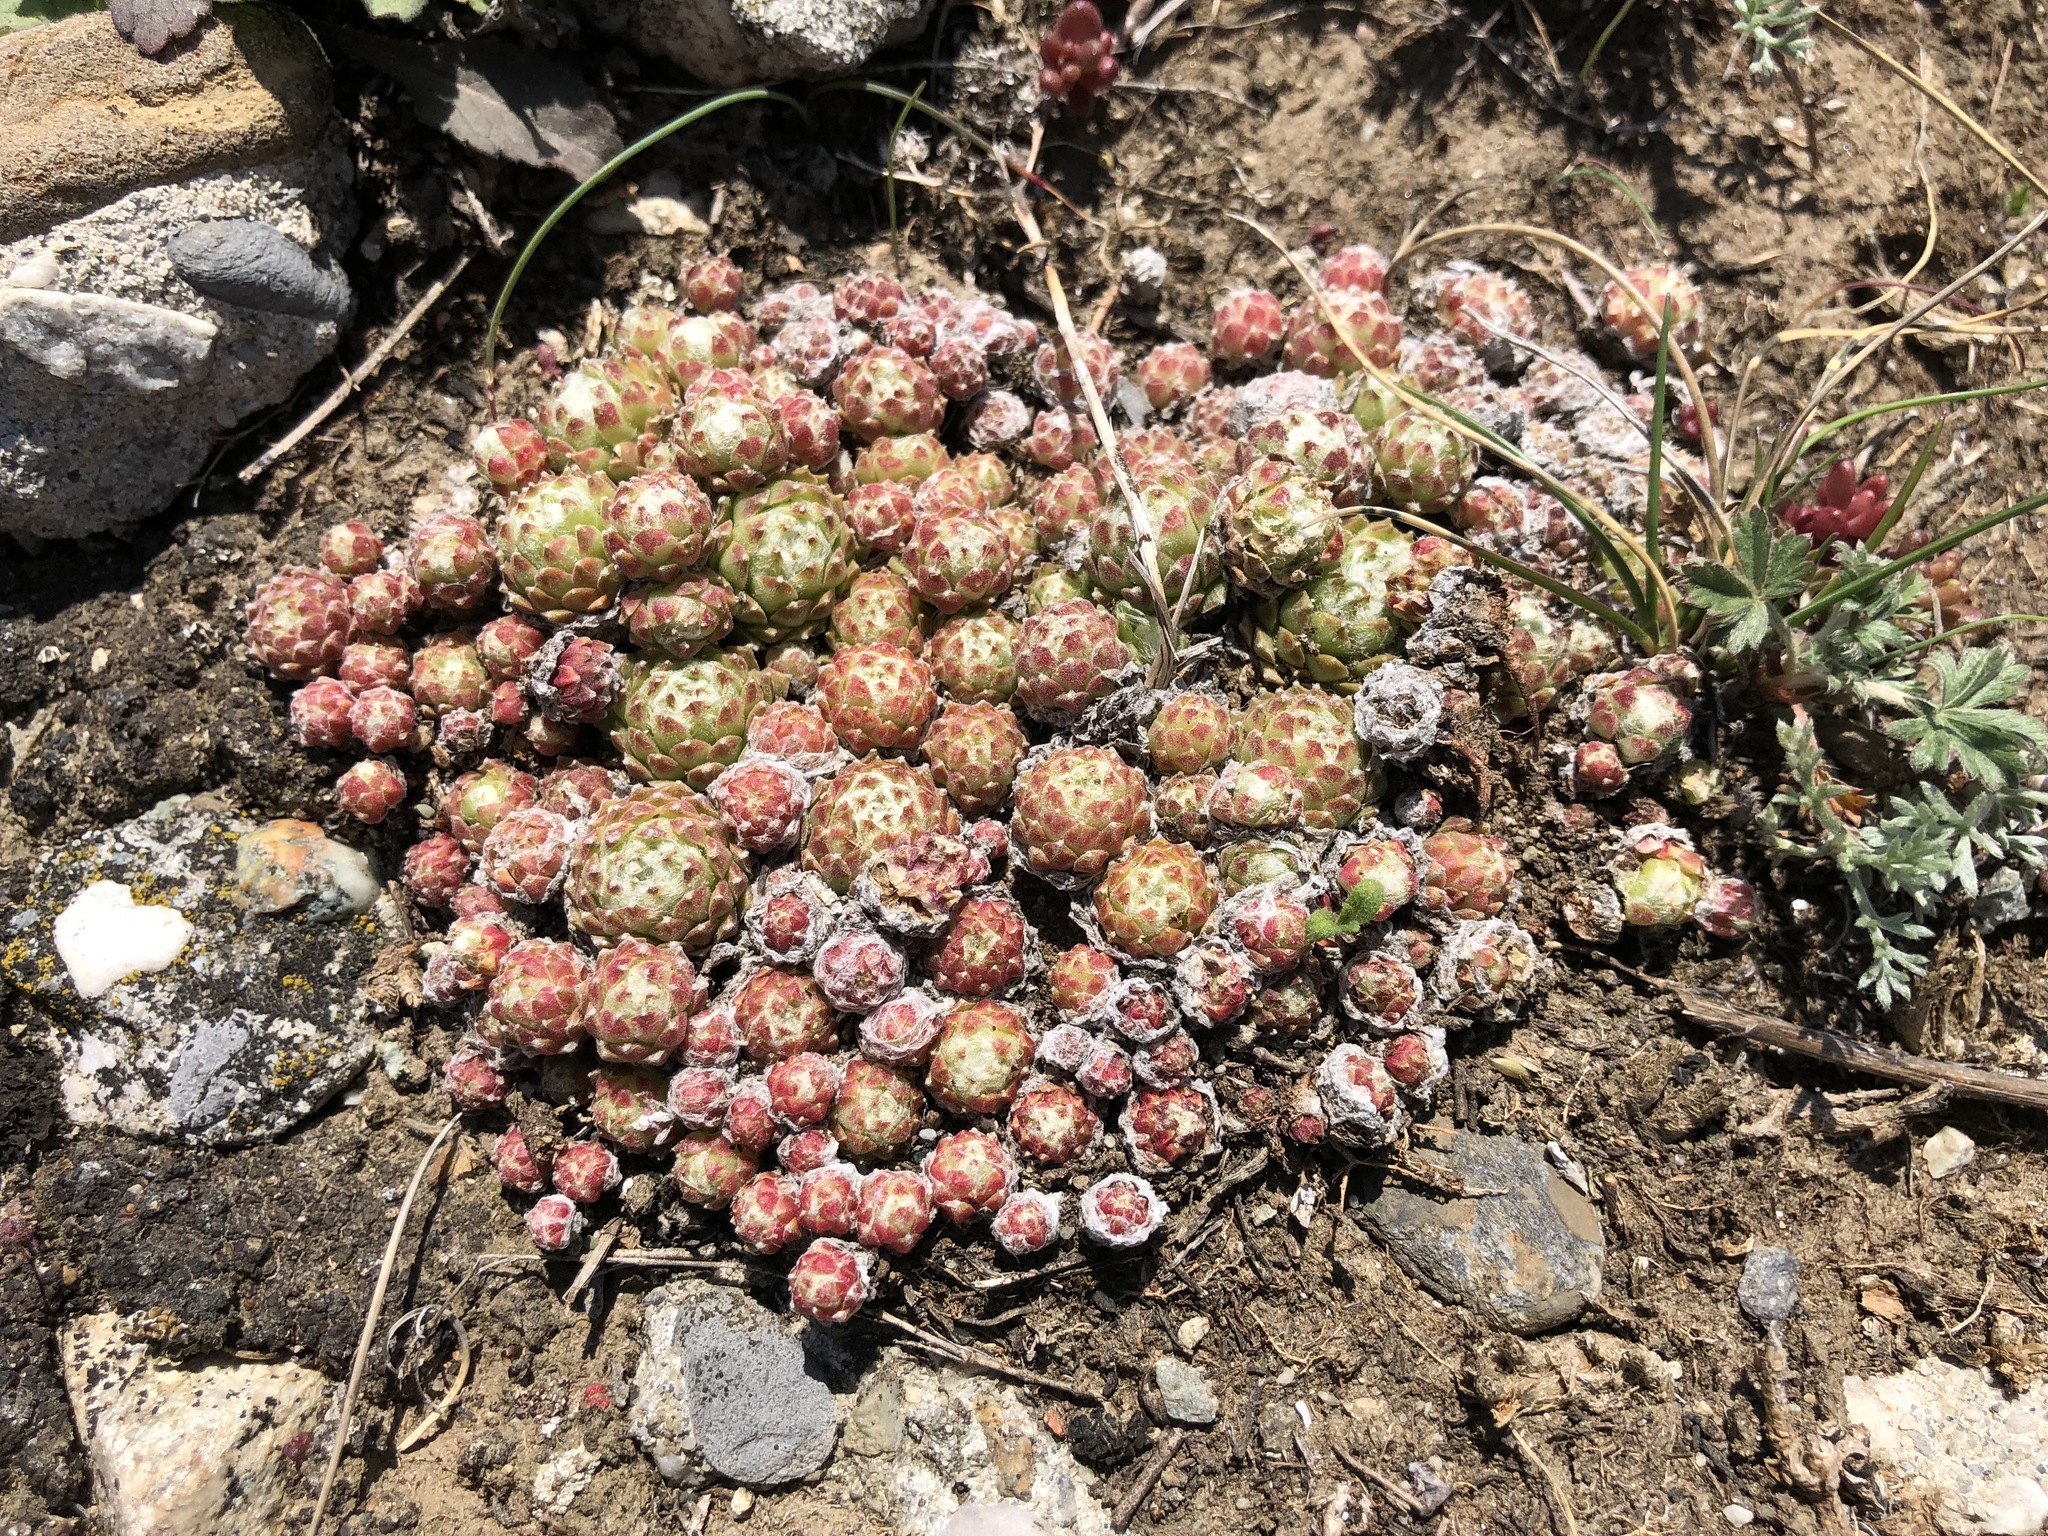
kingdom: Plantae
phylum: Tracheophyta
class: Magnoliopsida
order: Saxifragales
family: Crassulaceae
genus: Sempervivum
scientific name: Sempervivum arachnoideum
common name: Cobweb house-leek
